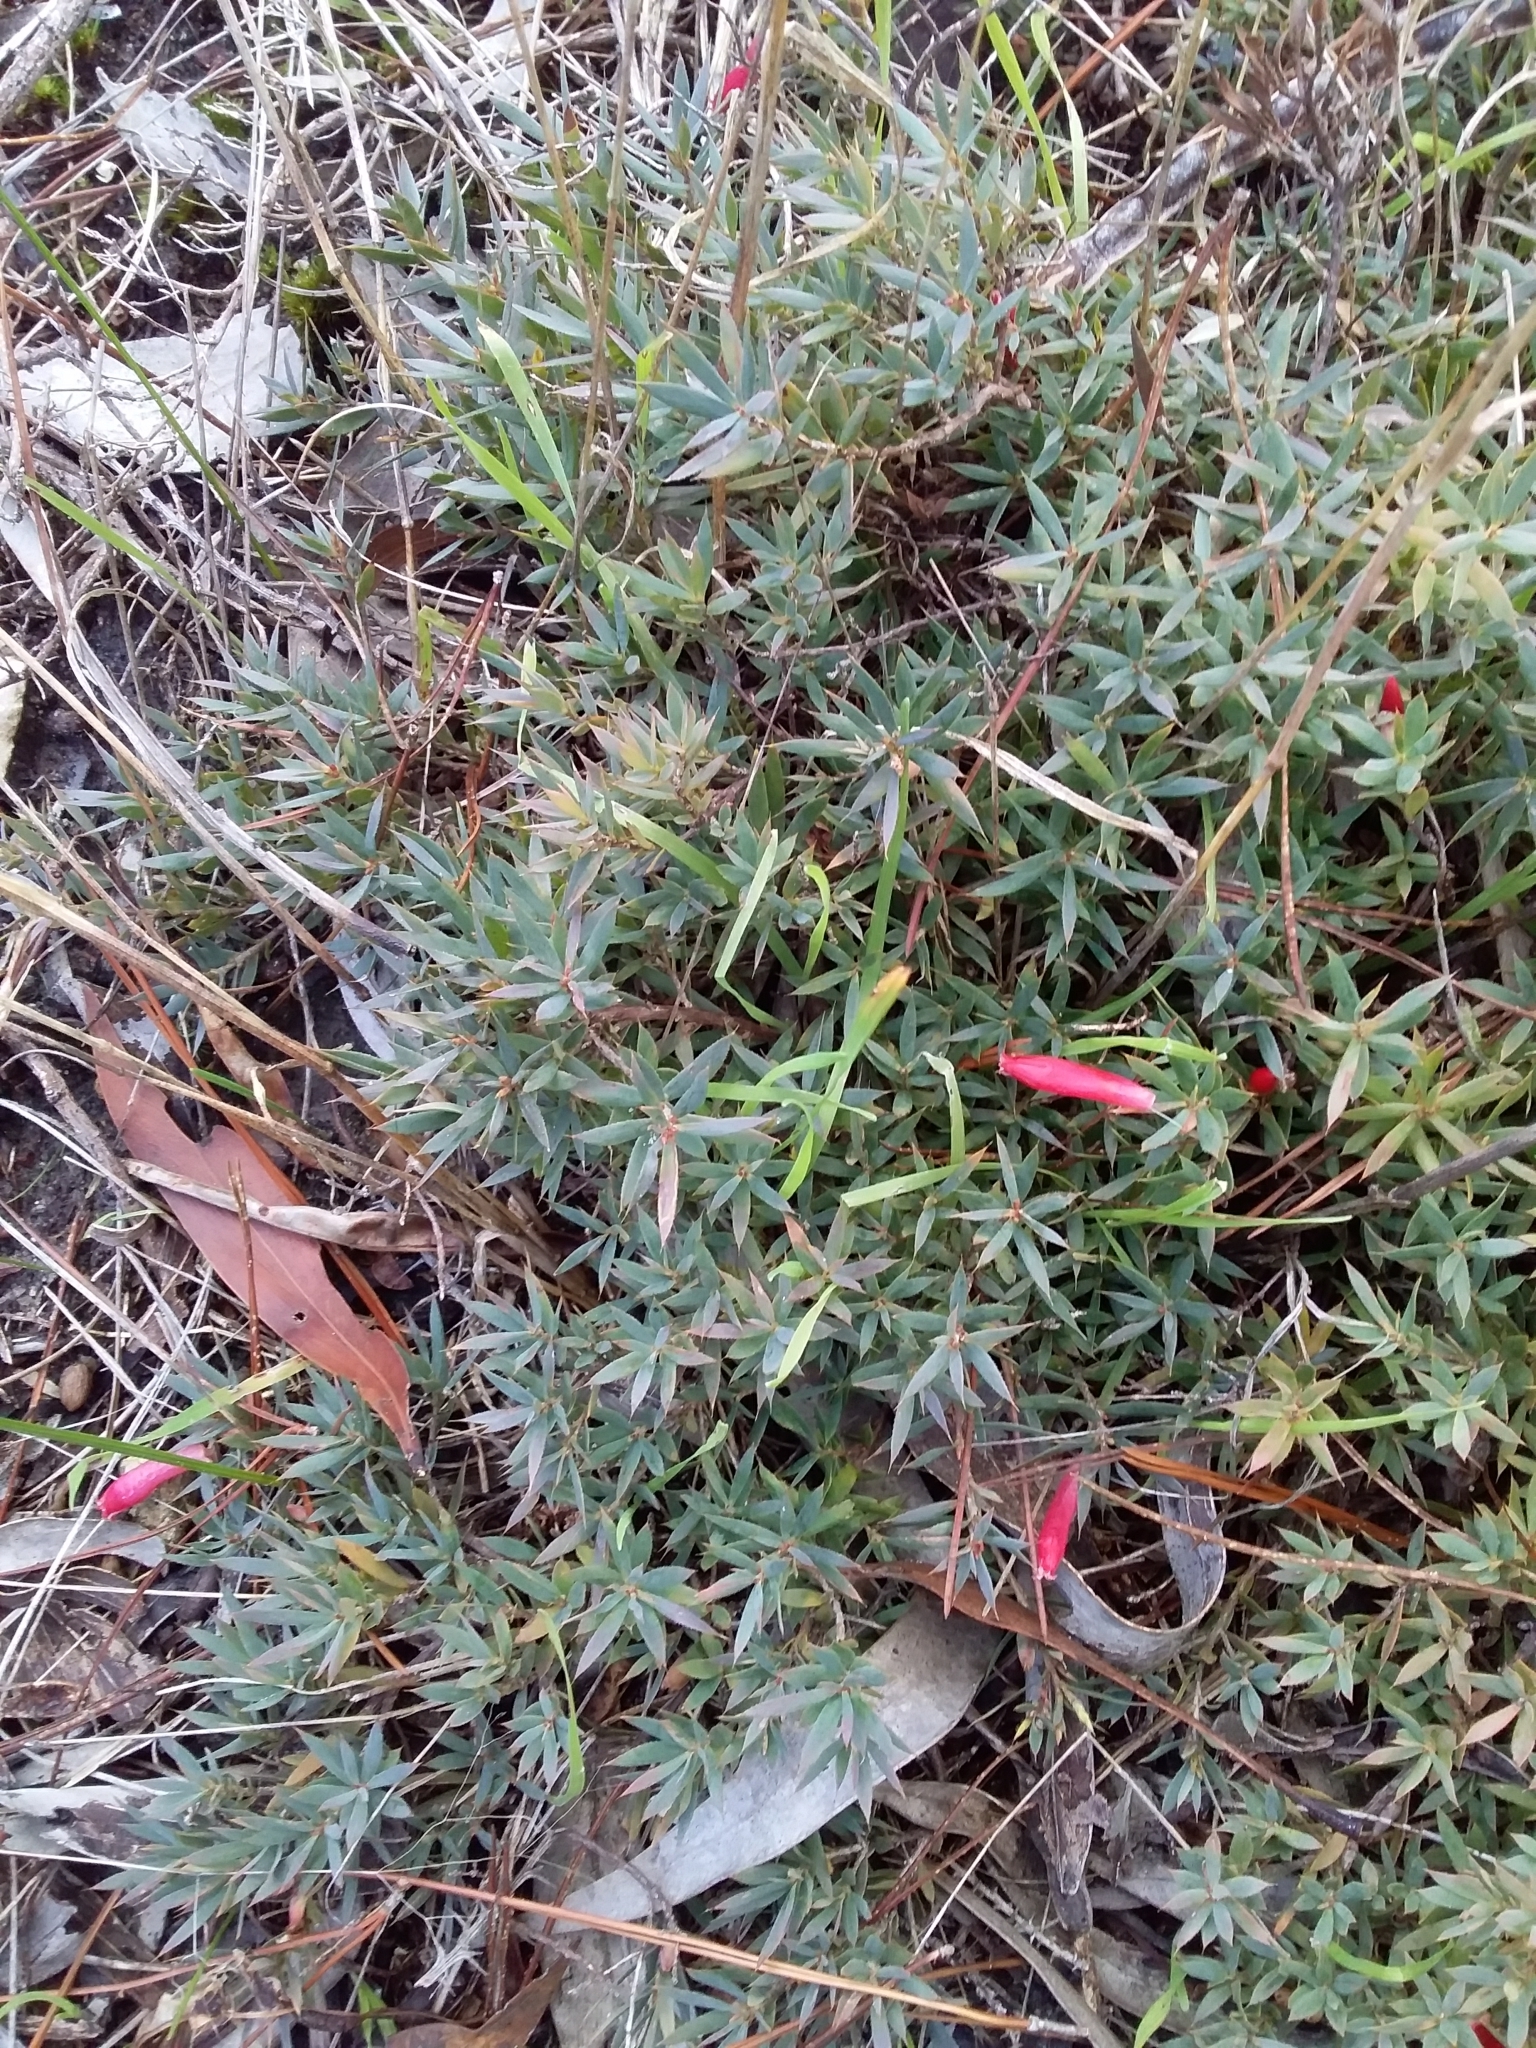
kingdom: Plantae
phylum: Tracheophyta
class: Magnoliopsida
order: Ericales
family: Ericaceae
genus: Styphelia
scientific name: Styphelia humifusa
